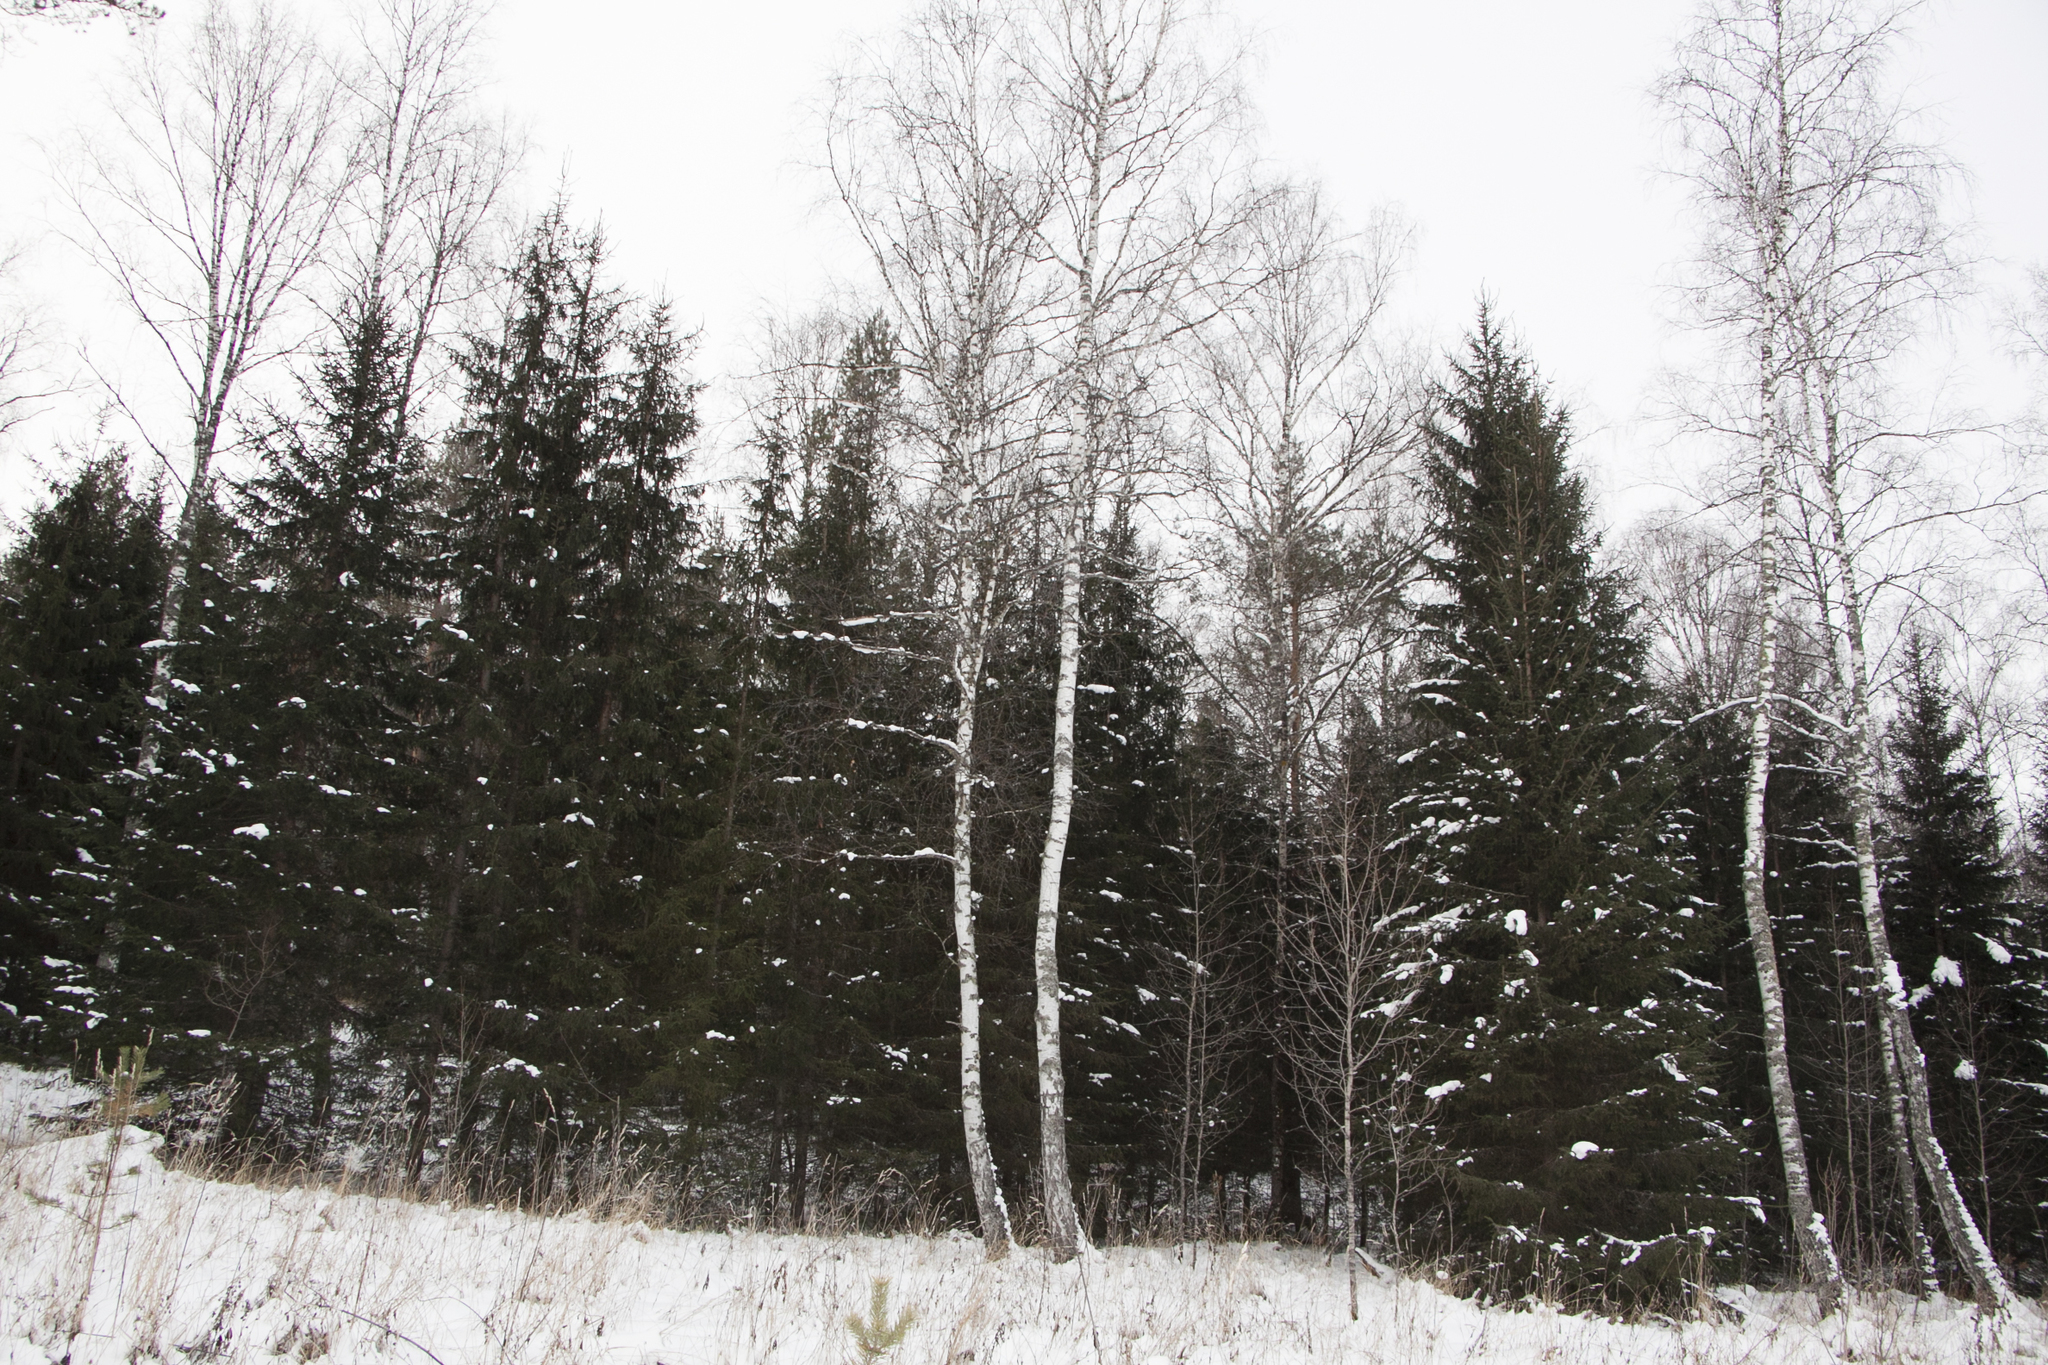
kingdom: Plantae
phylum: Tracheophyta
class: Pinopsida
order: Pinales
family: Pinaceae
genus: Picea
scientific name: Picea obovata
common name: Siberian spruce
